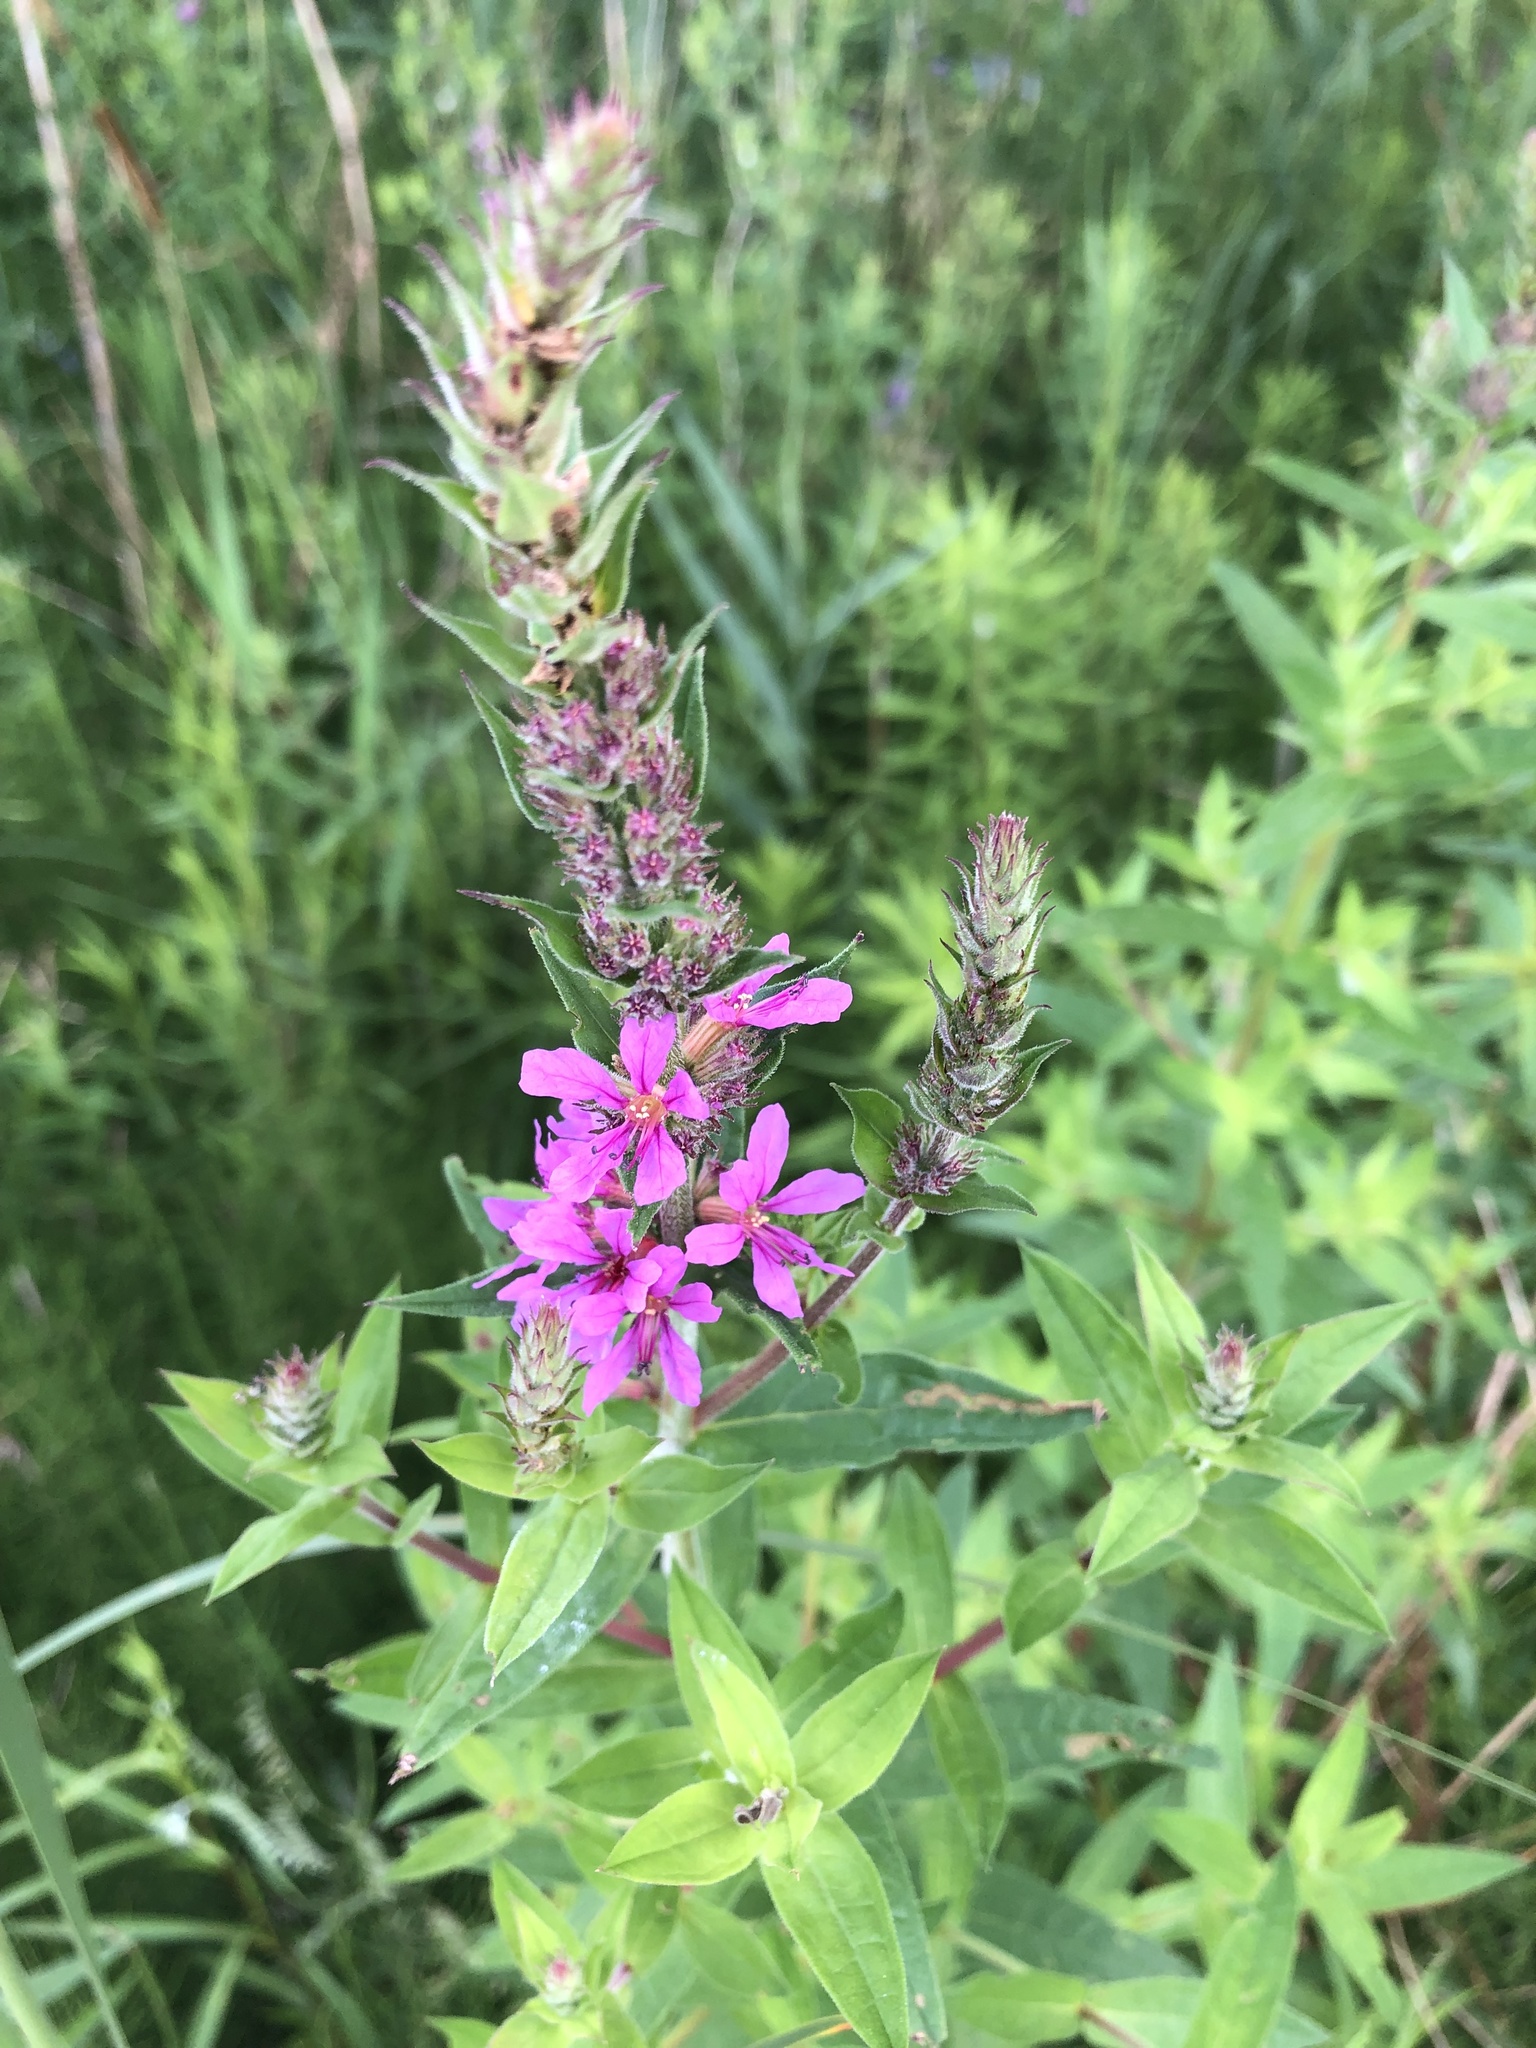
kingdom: Plantae
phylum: Tracheophyta
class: Magnoliopsida
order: Myrtales
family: Lythraceae
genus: Lythrum
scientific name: Lythrum salicaria
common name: Purple loosestrife
